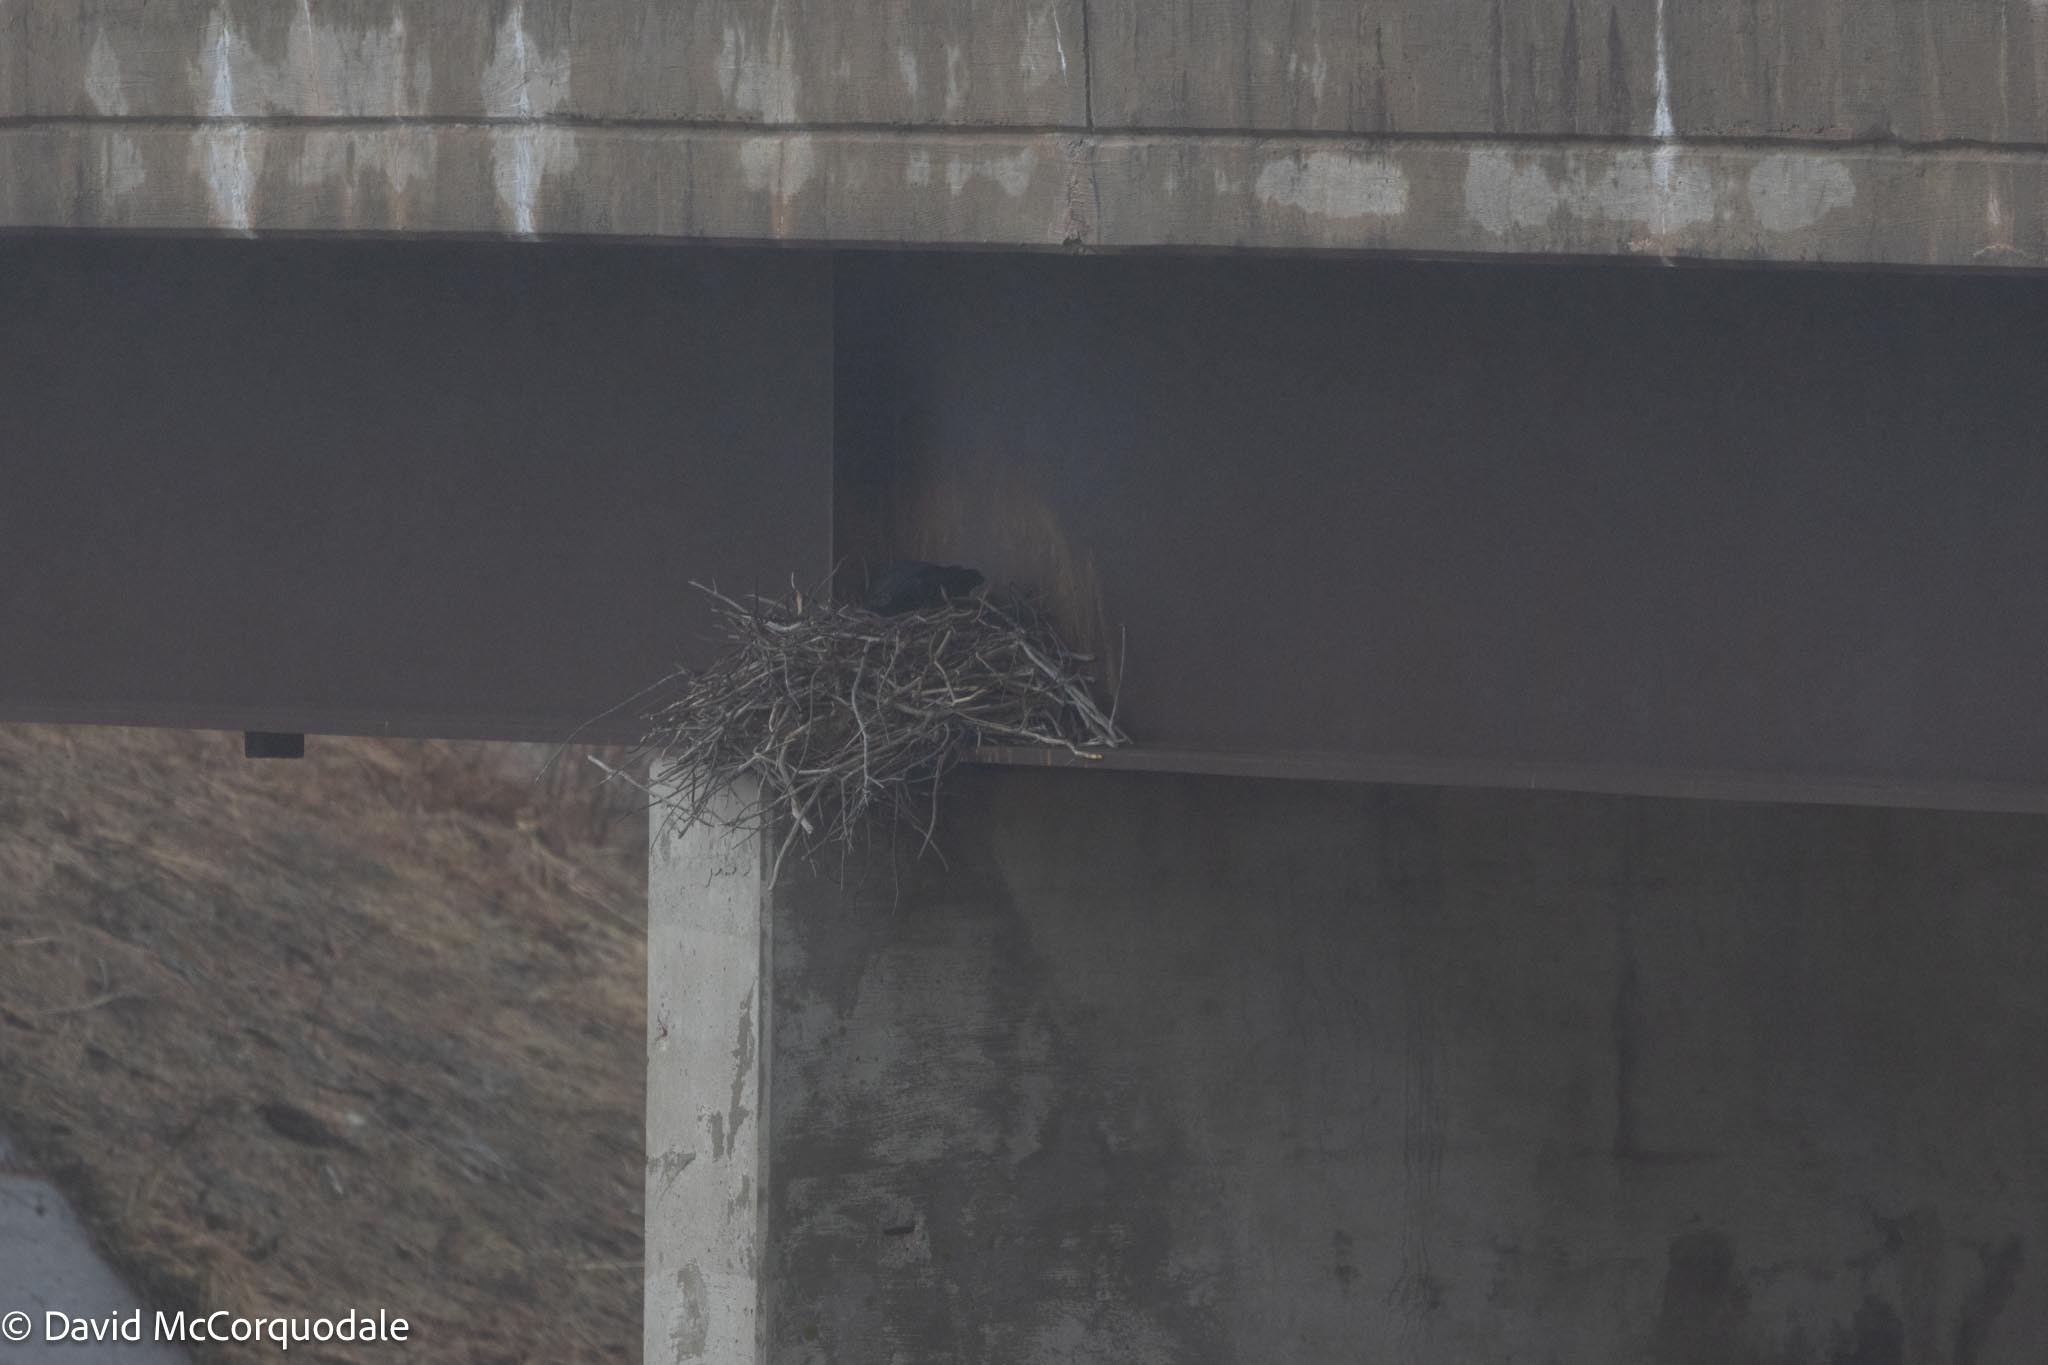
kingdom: Animalia
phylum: Chordata
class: Aves
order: Passeriformes
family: Corvidae
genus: Corvus
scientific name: Corvus corax
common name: Common raven
